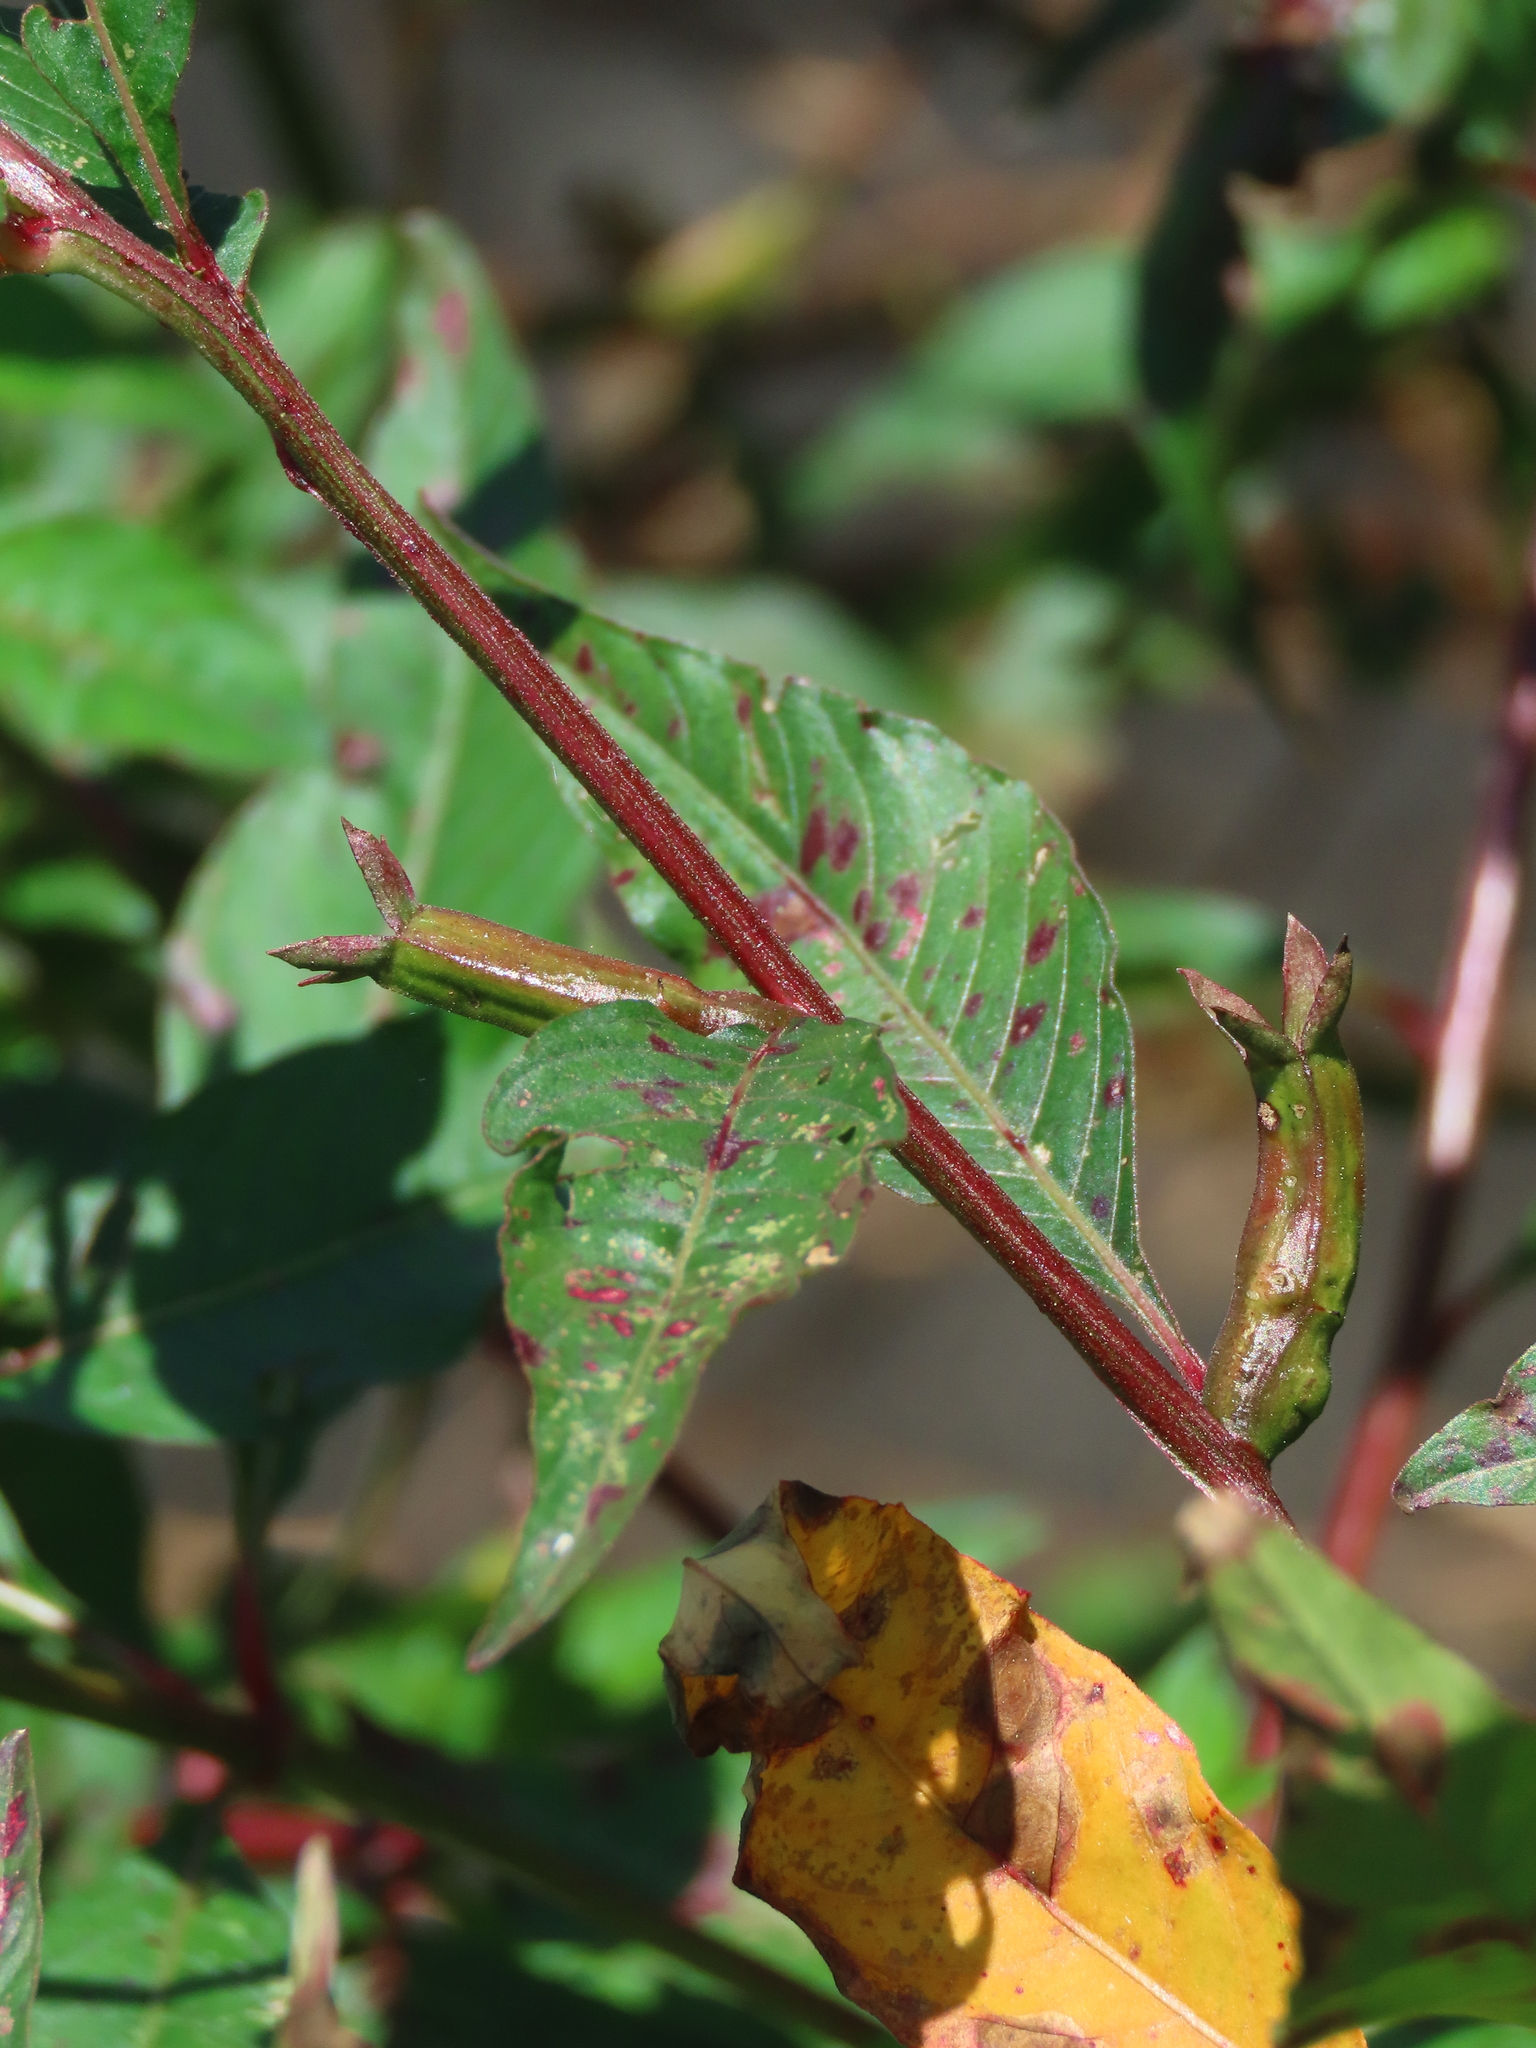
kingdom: Plantae
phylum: Tracheophyta
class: Magnoliopsida
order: Myrtales
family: Onagraceae
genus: Ludwigia
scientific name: Ludwigia erecta
